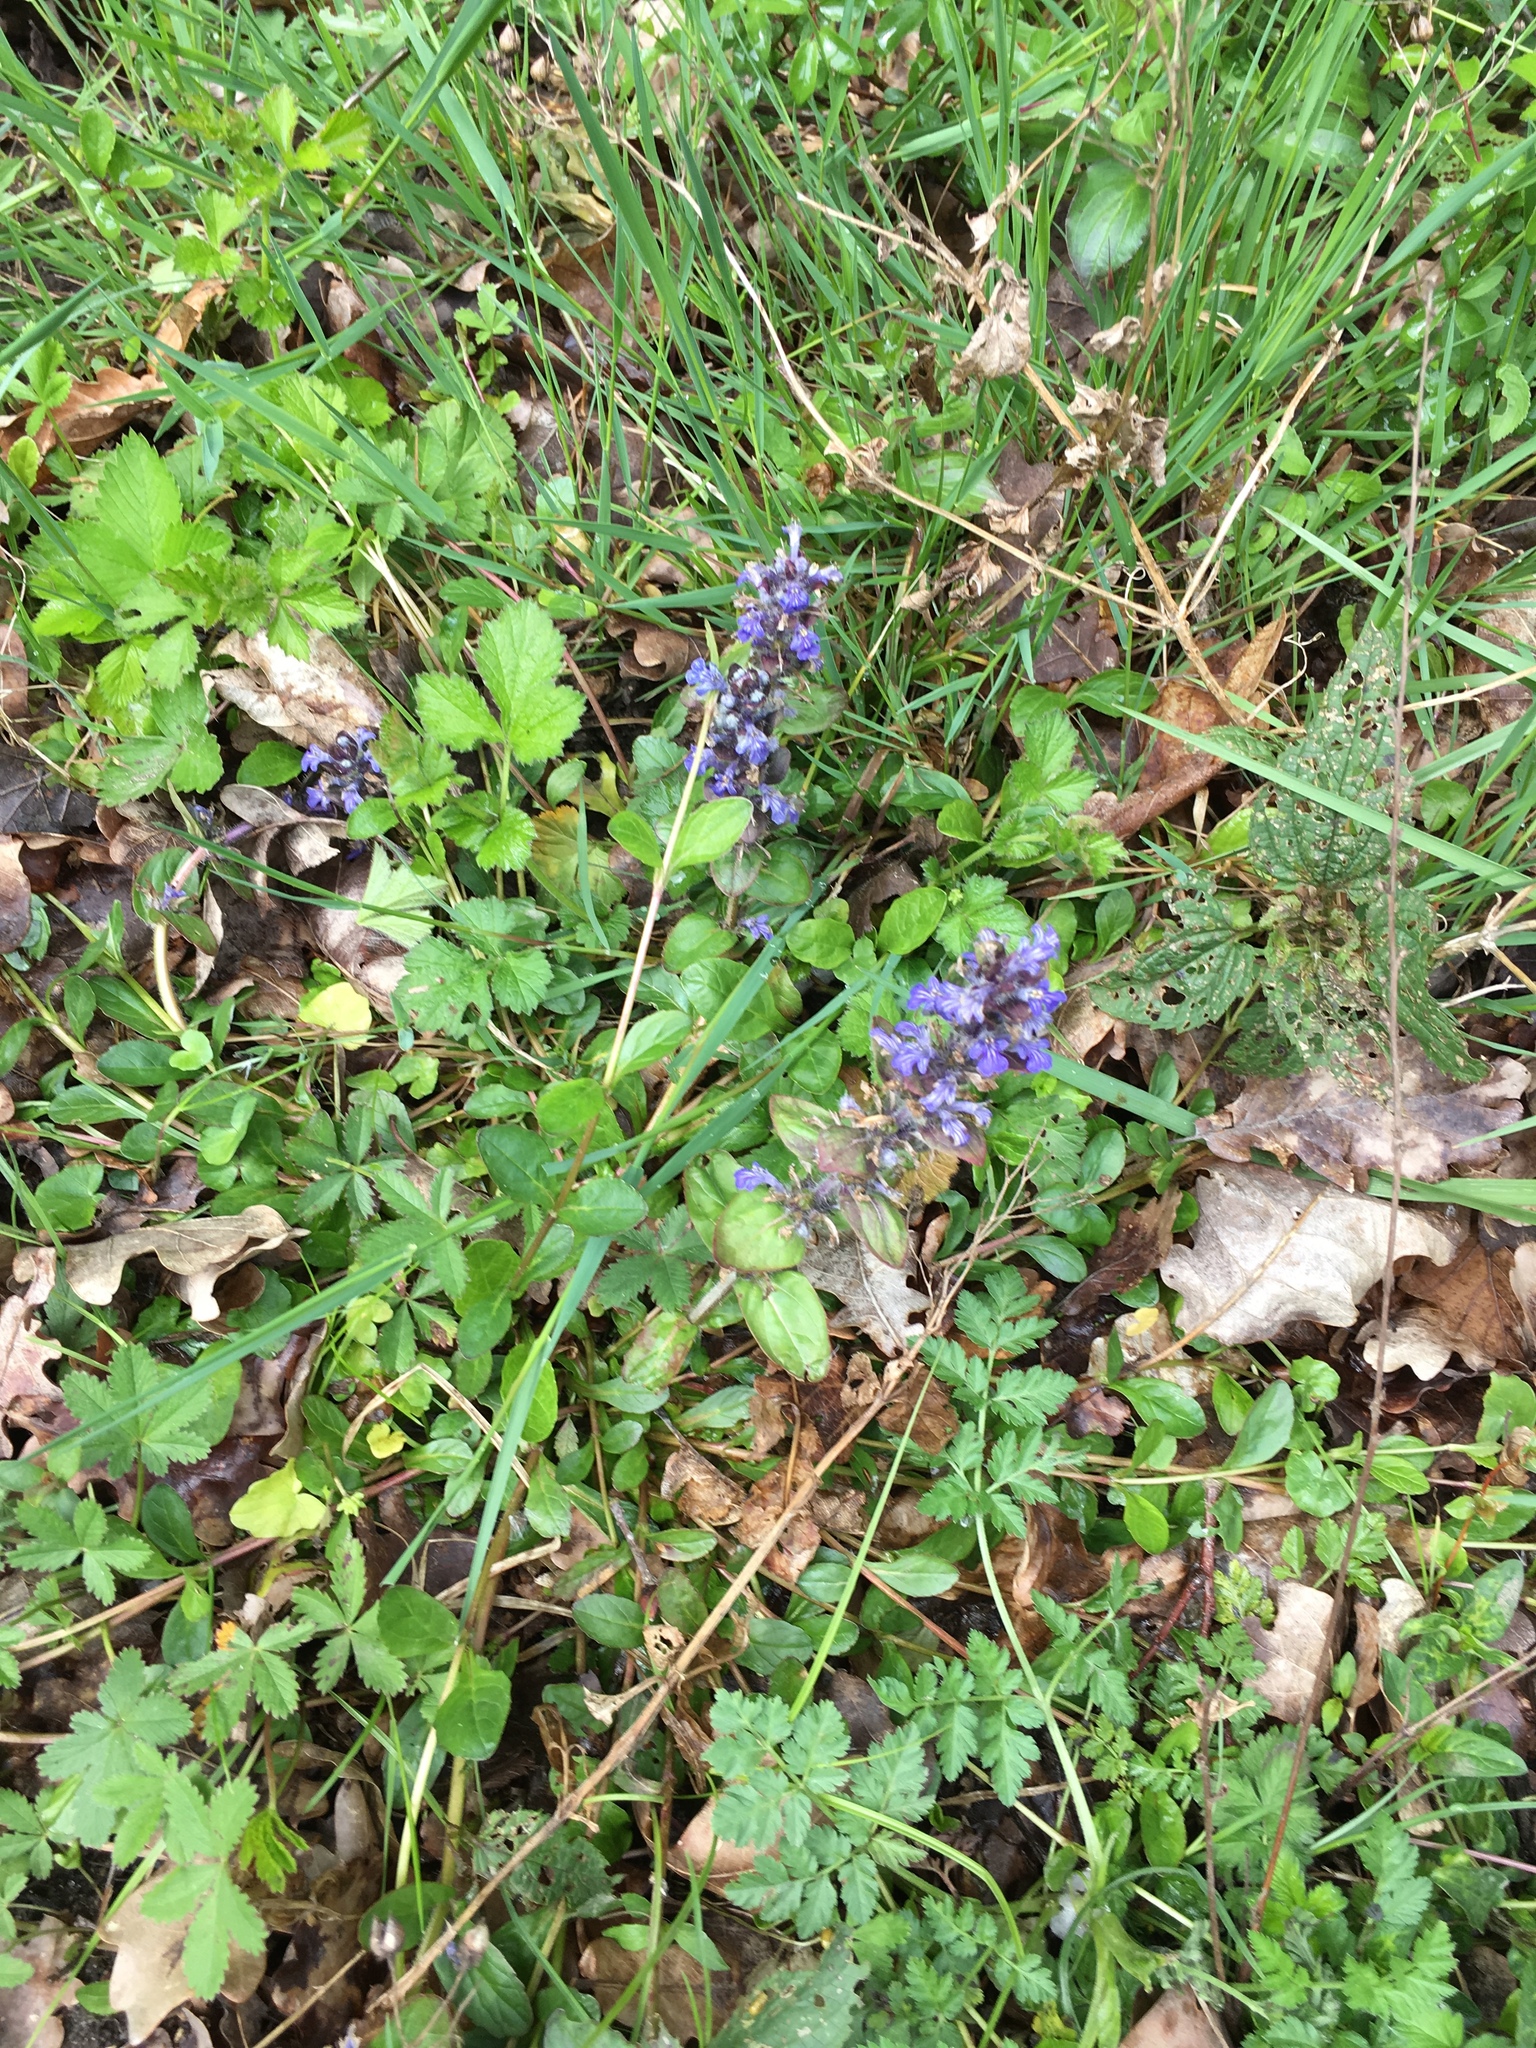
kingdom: Plantae
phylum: Tracheophyta
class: Magnoliopsida
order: Lamiales
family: Lamiaceae
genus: Ajuga
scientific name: Ajuga reptans
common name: Bugle
